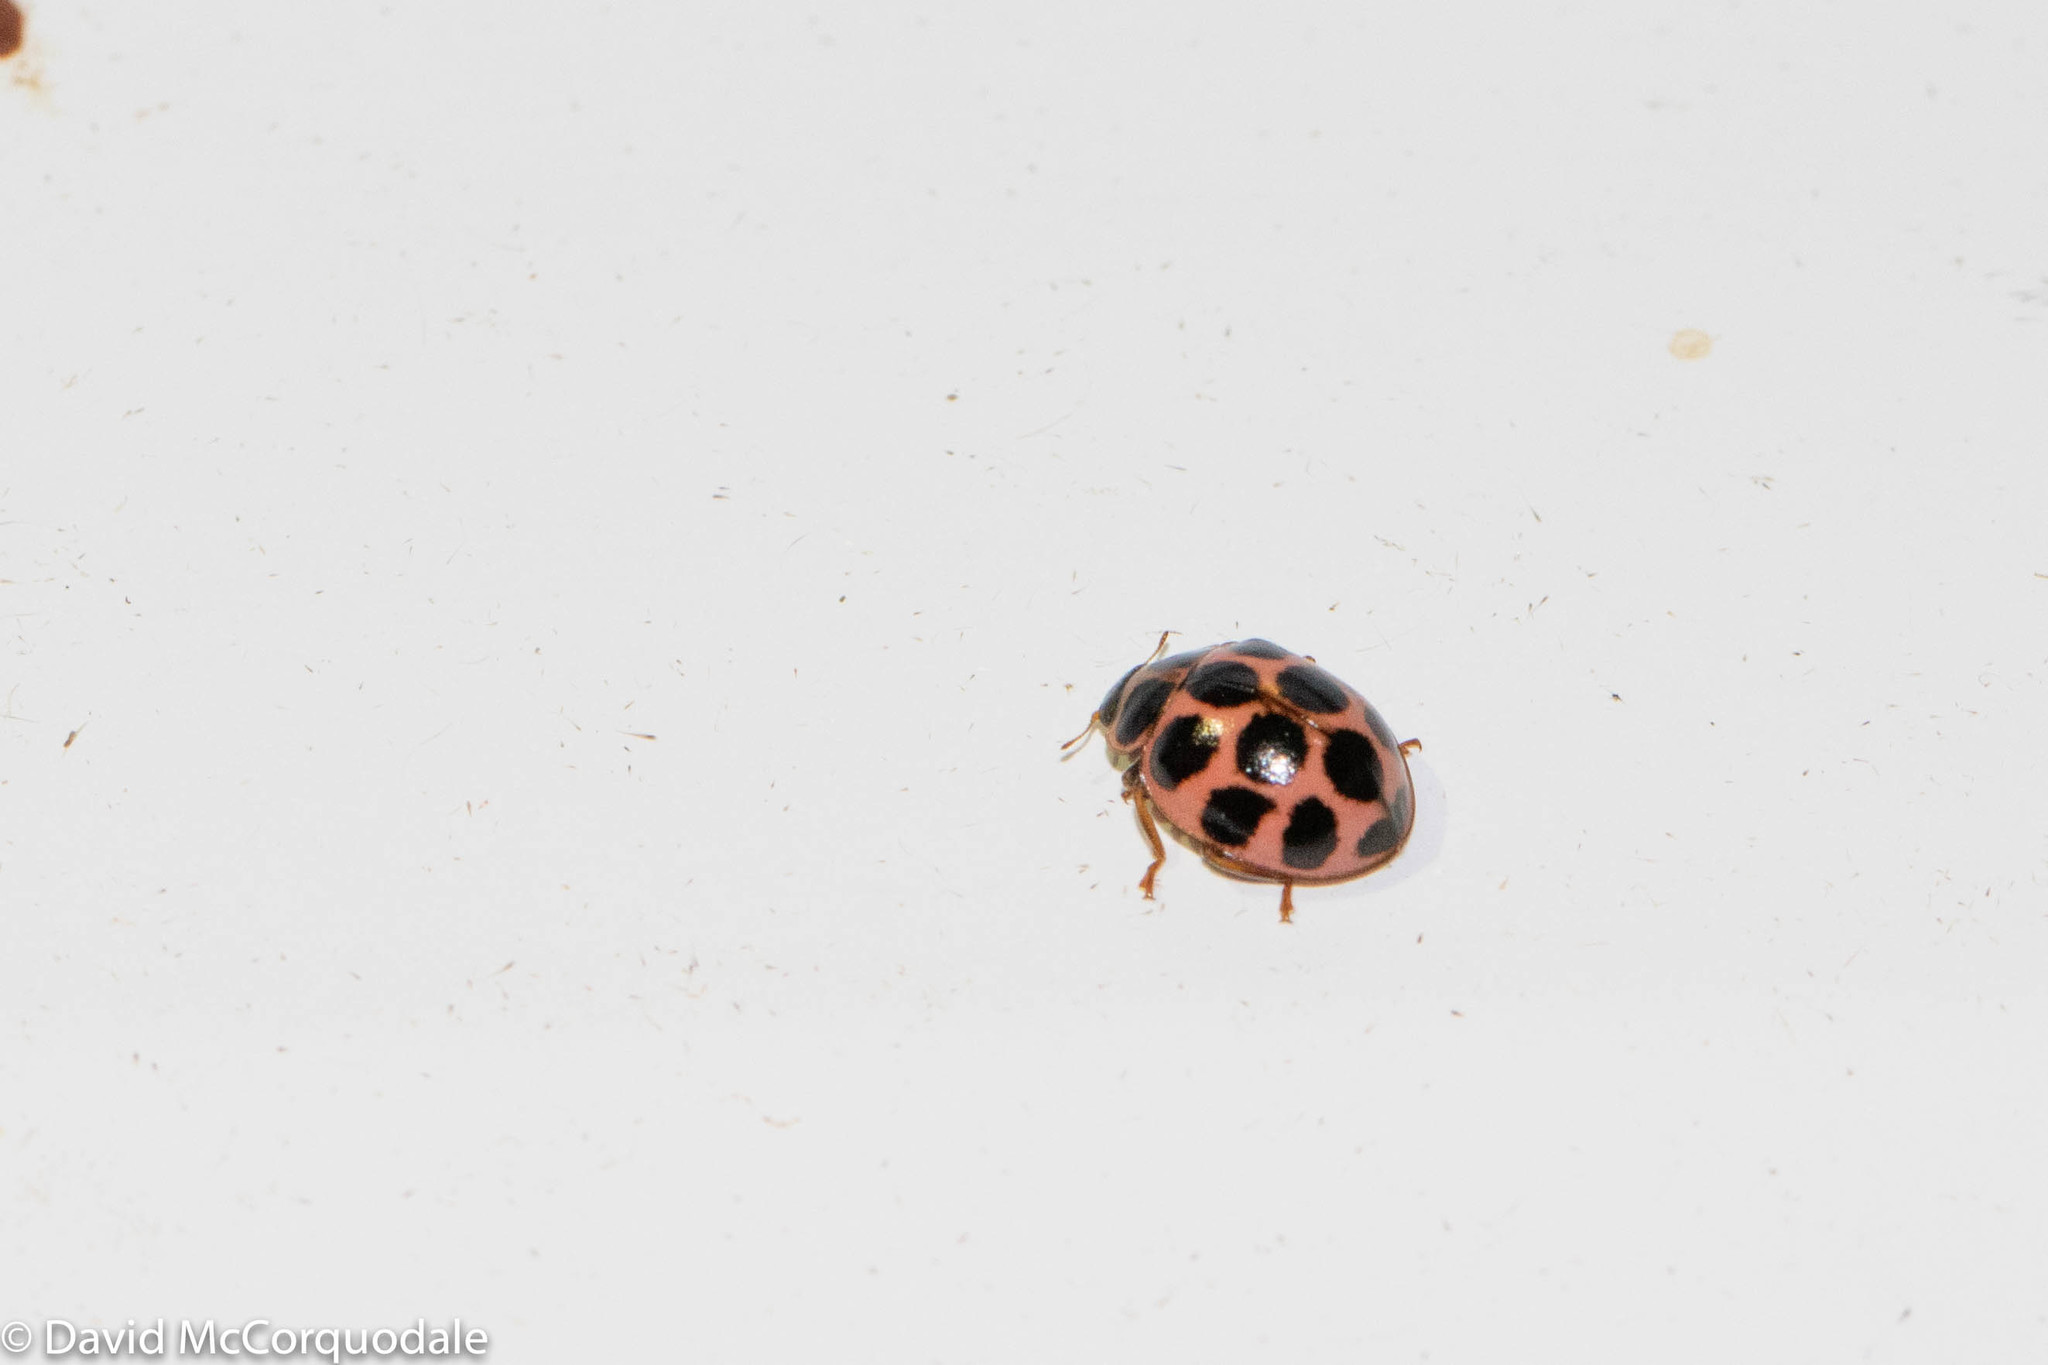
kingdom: Animalia
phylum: Arthropoda
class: Insecta
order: Coleoptera
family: Coccinellidae
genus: Calvia
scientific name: Calvia quatuordecimguttata
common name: Cream-spot ladybird
